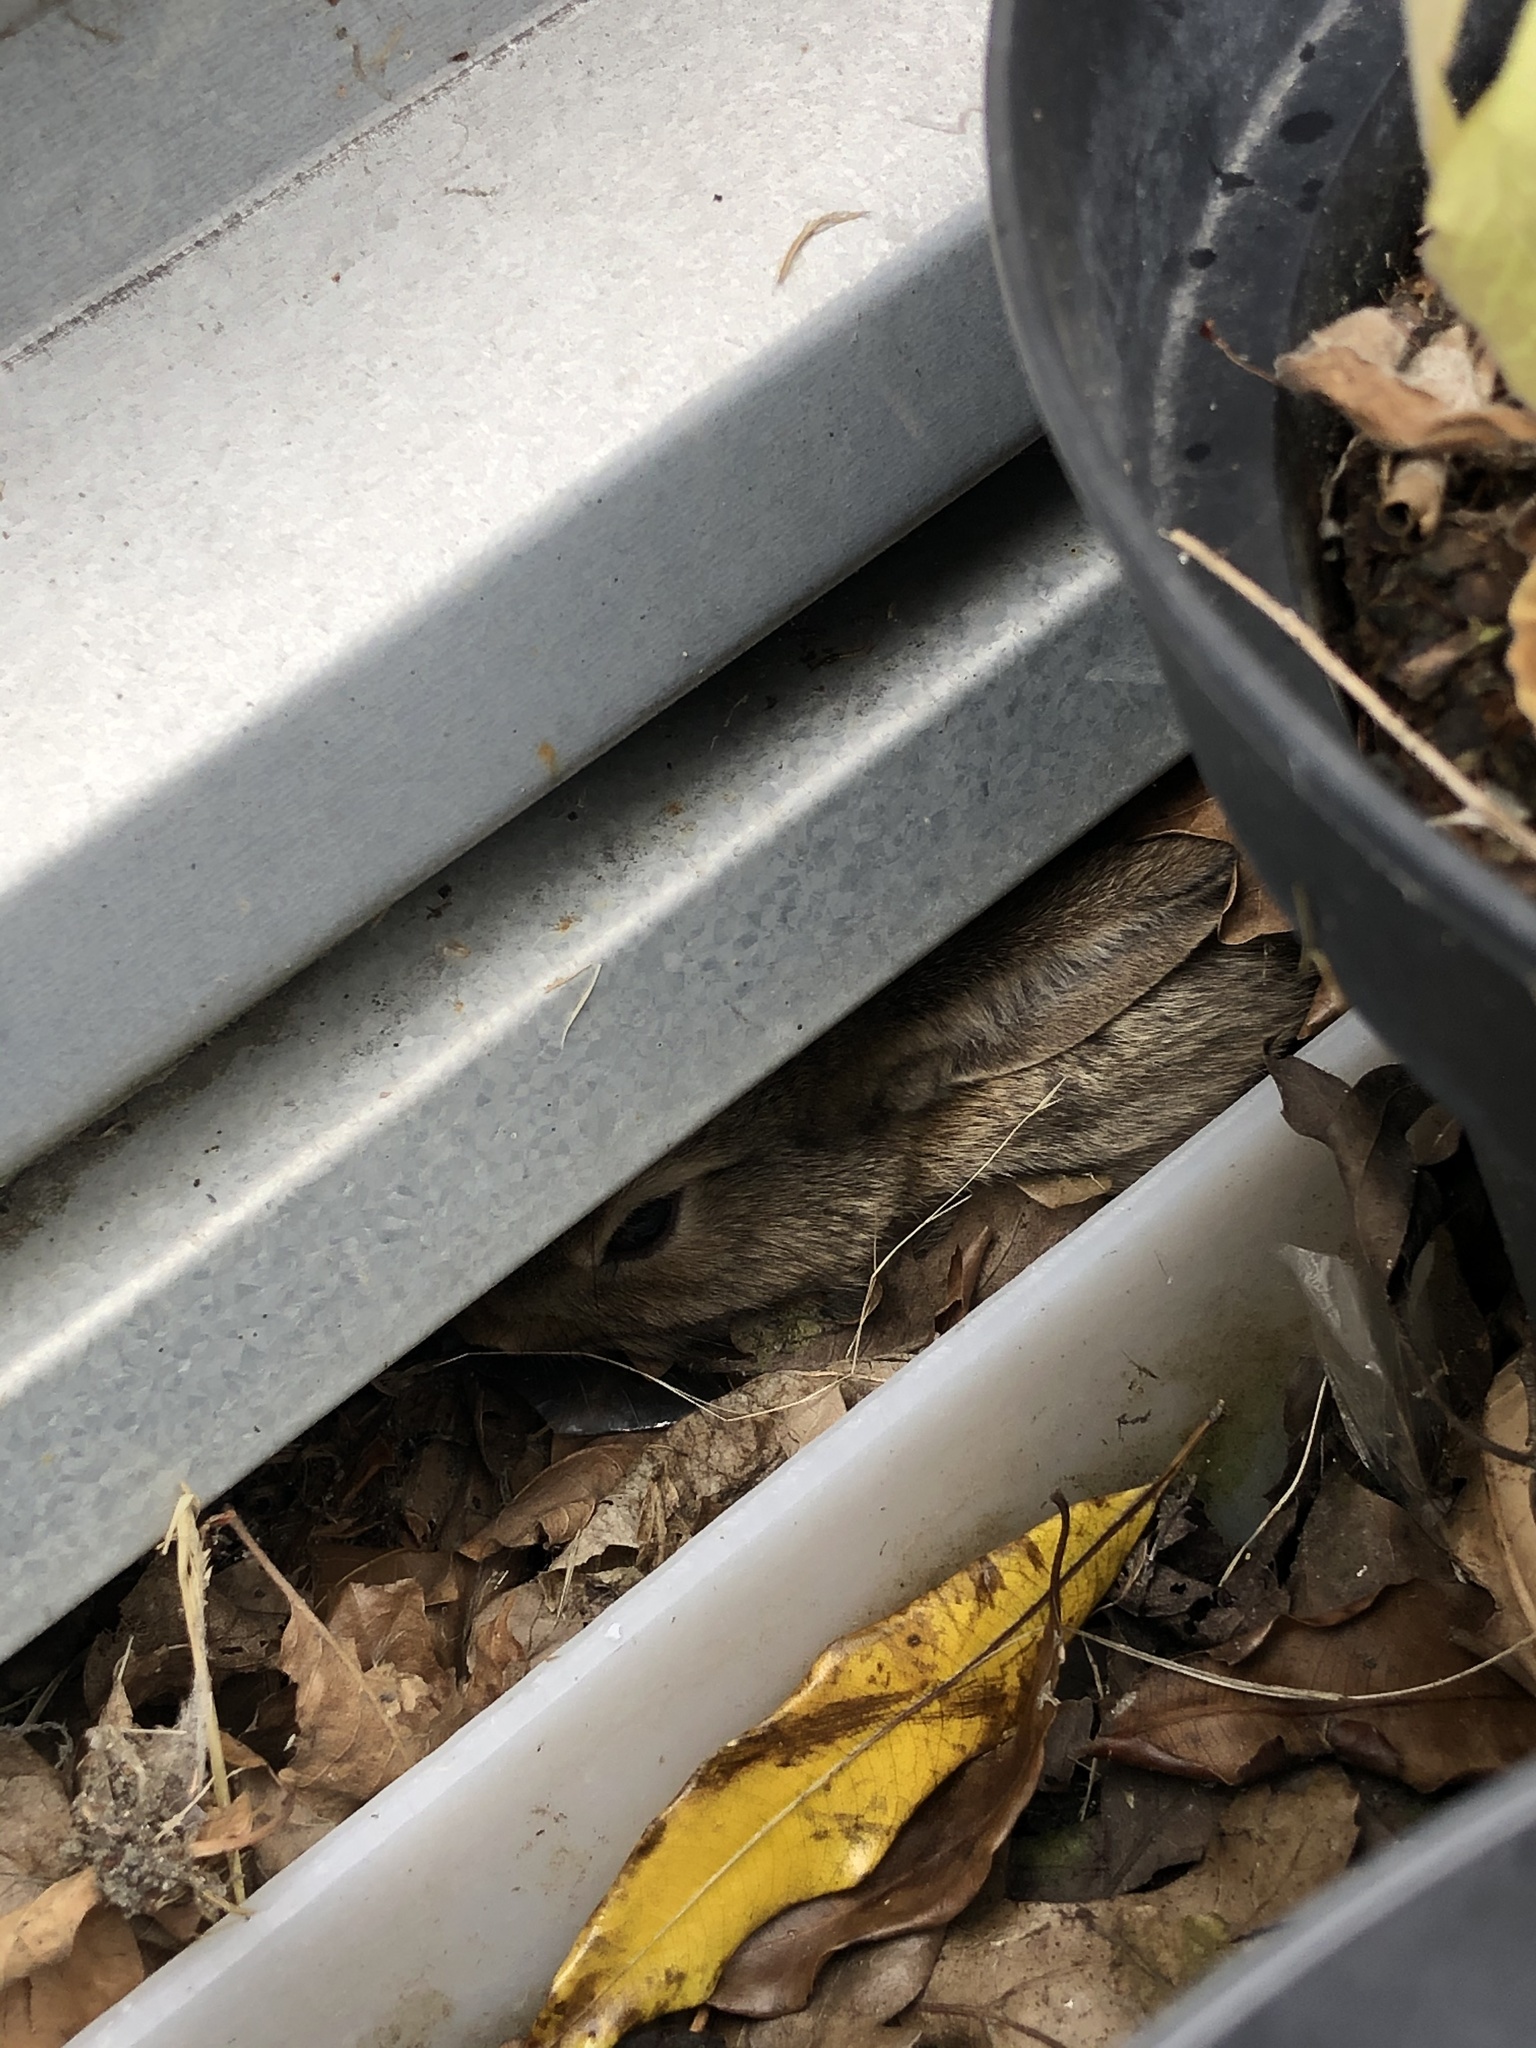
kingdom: Animalia
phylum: Chordata
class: Mammalia
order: Lagomorpha
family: Leporidae
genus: Oryctolagus
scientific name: Oryctolagus cuniculus
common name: European rabbit
